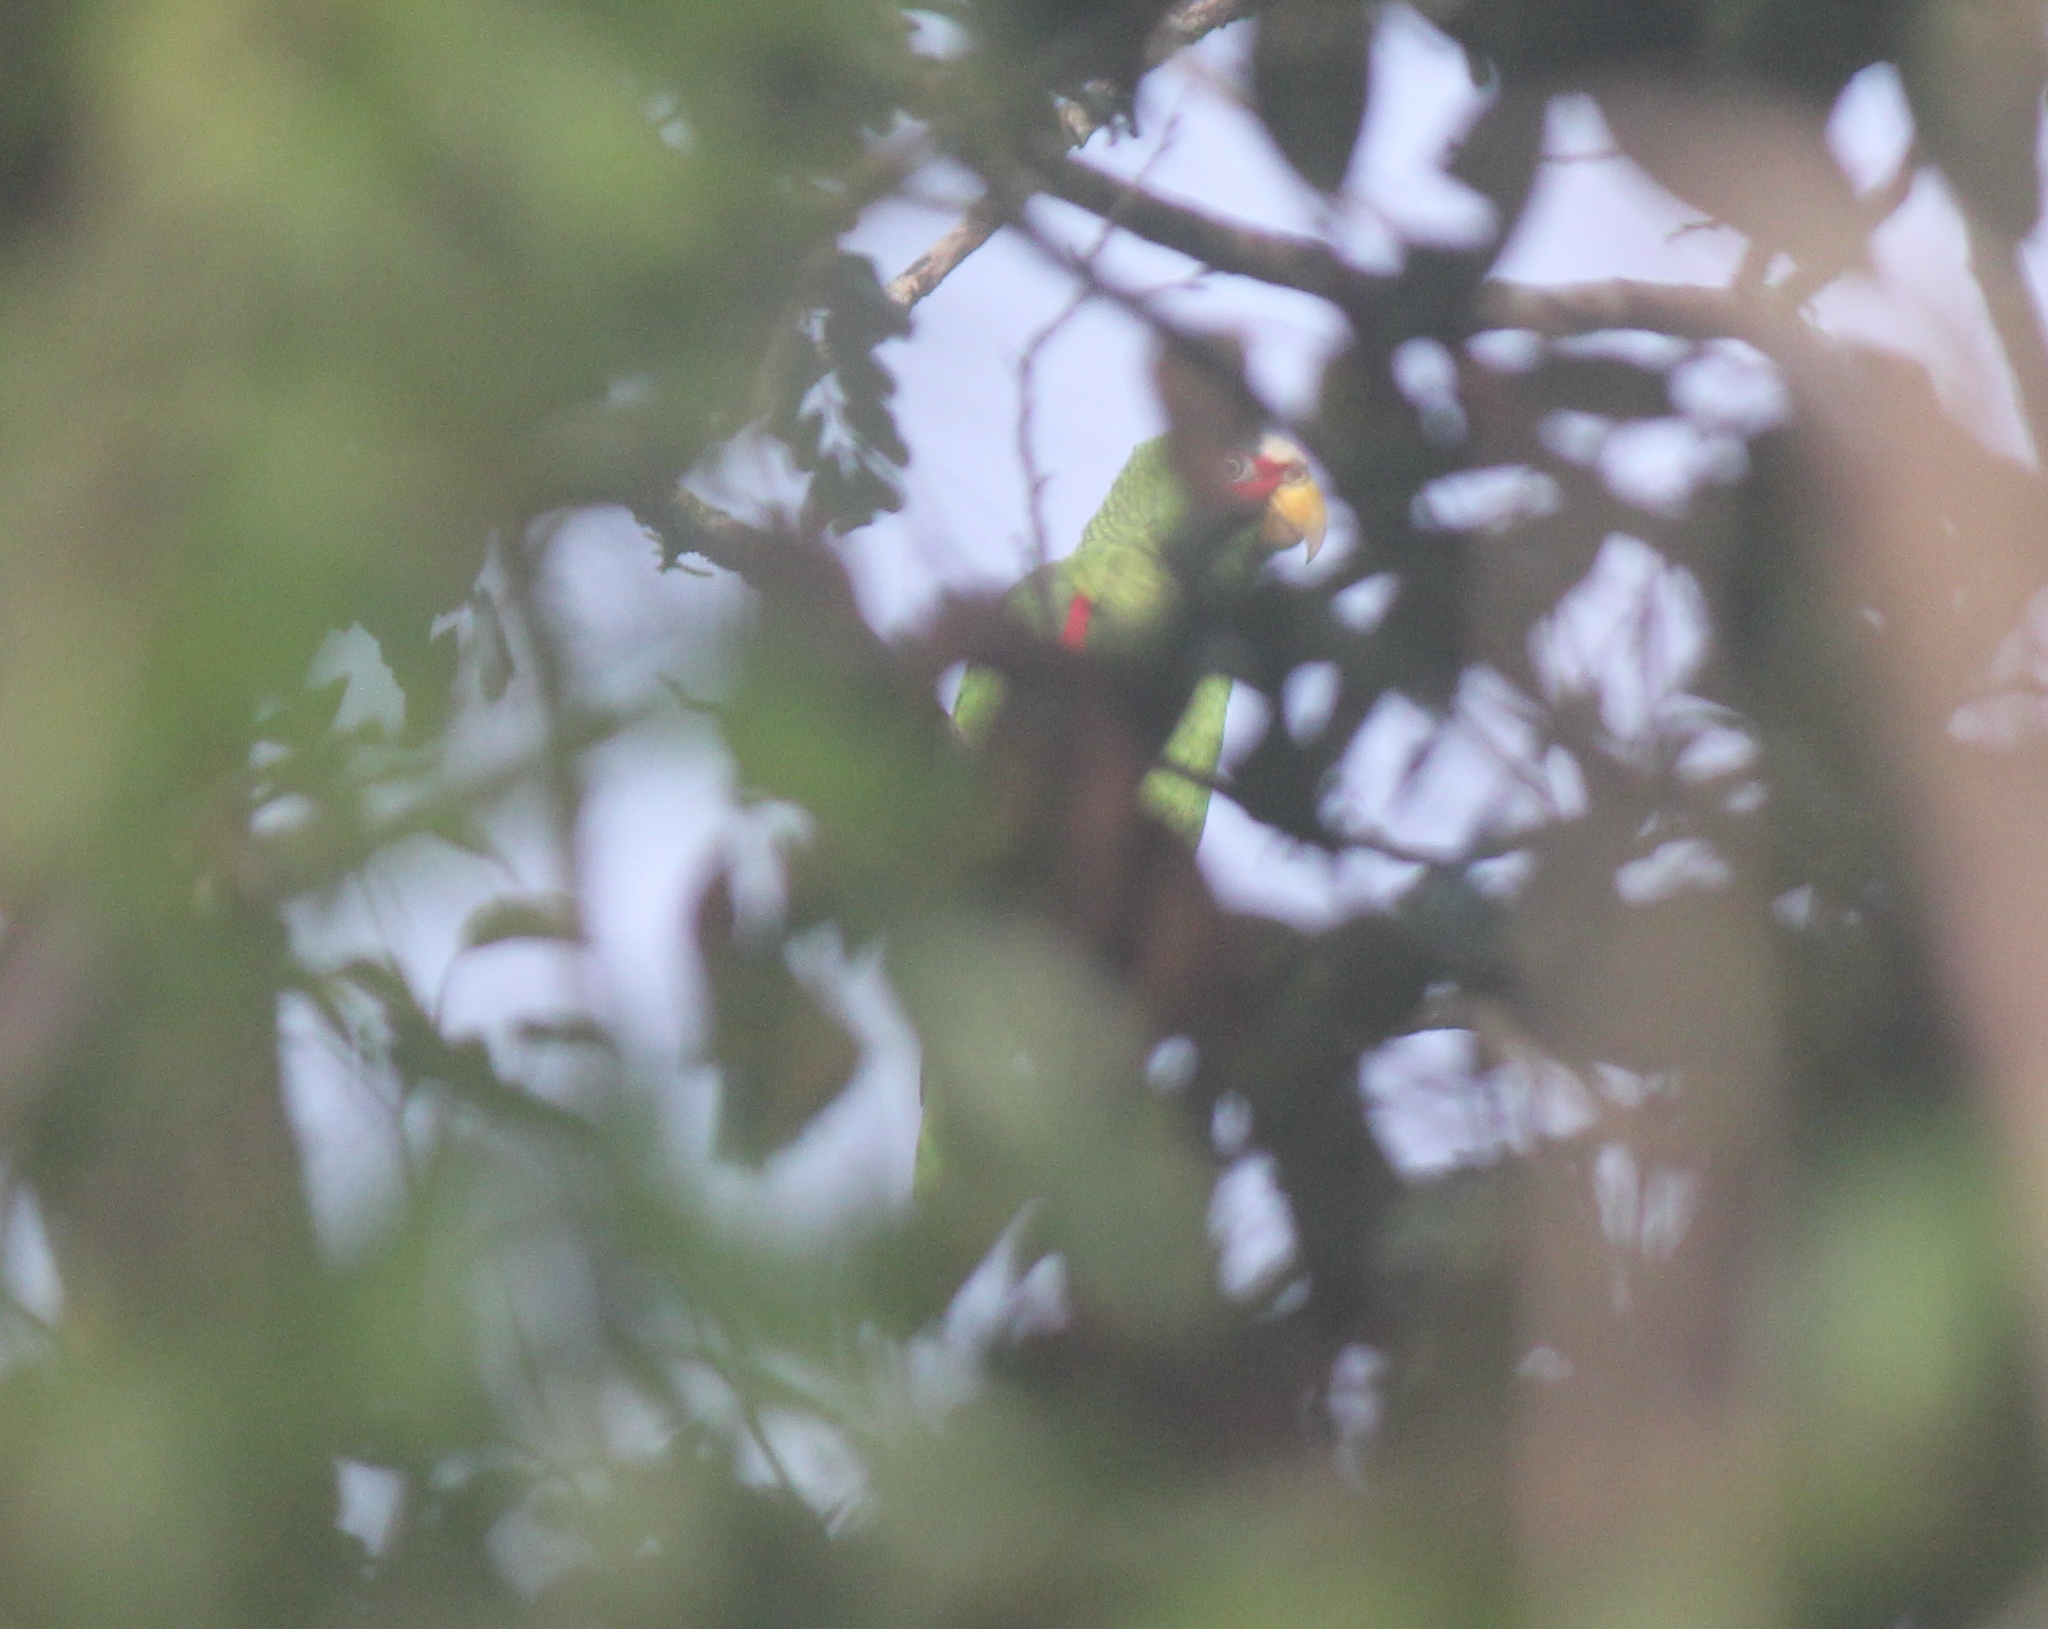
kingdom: Animalia
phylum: Chordata
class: Aves
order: Psittaciformes
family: Psittacidae
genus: Amazona
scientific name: Amazona albifrons
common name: White-fronted amazon
